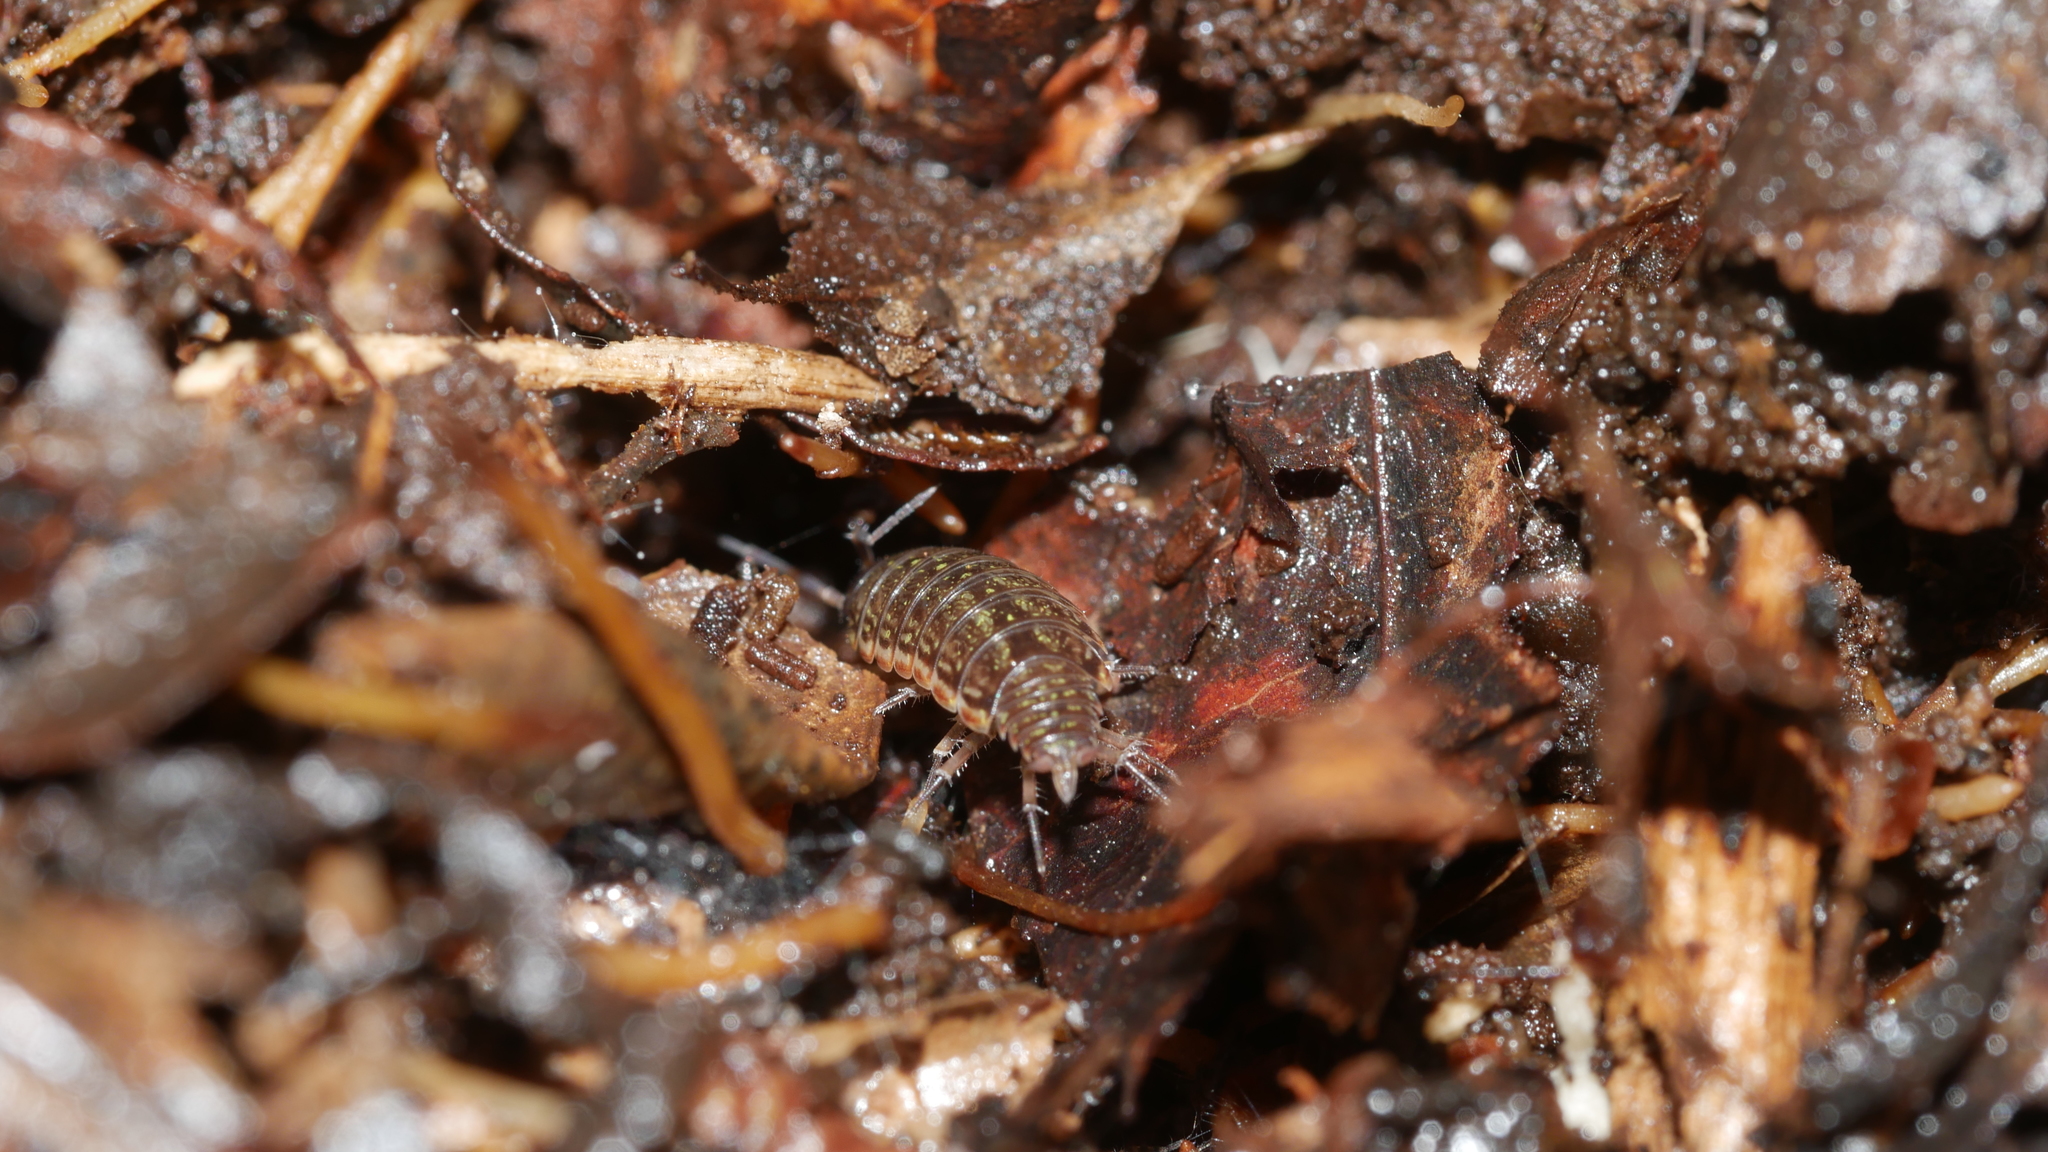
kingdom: Animalia
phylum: Arthropoda
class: Malacostraca
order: Isopoda
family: Philosciidae
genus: Philoscia
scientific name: Philoscia muscorum
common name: Common striped woodlouse
